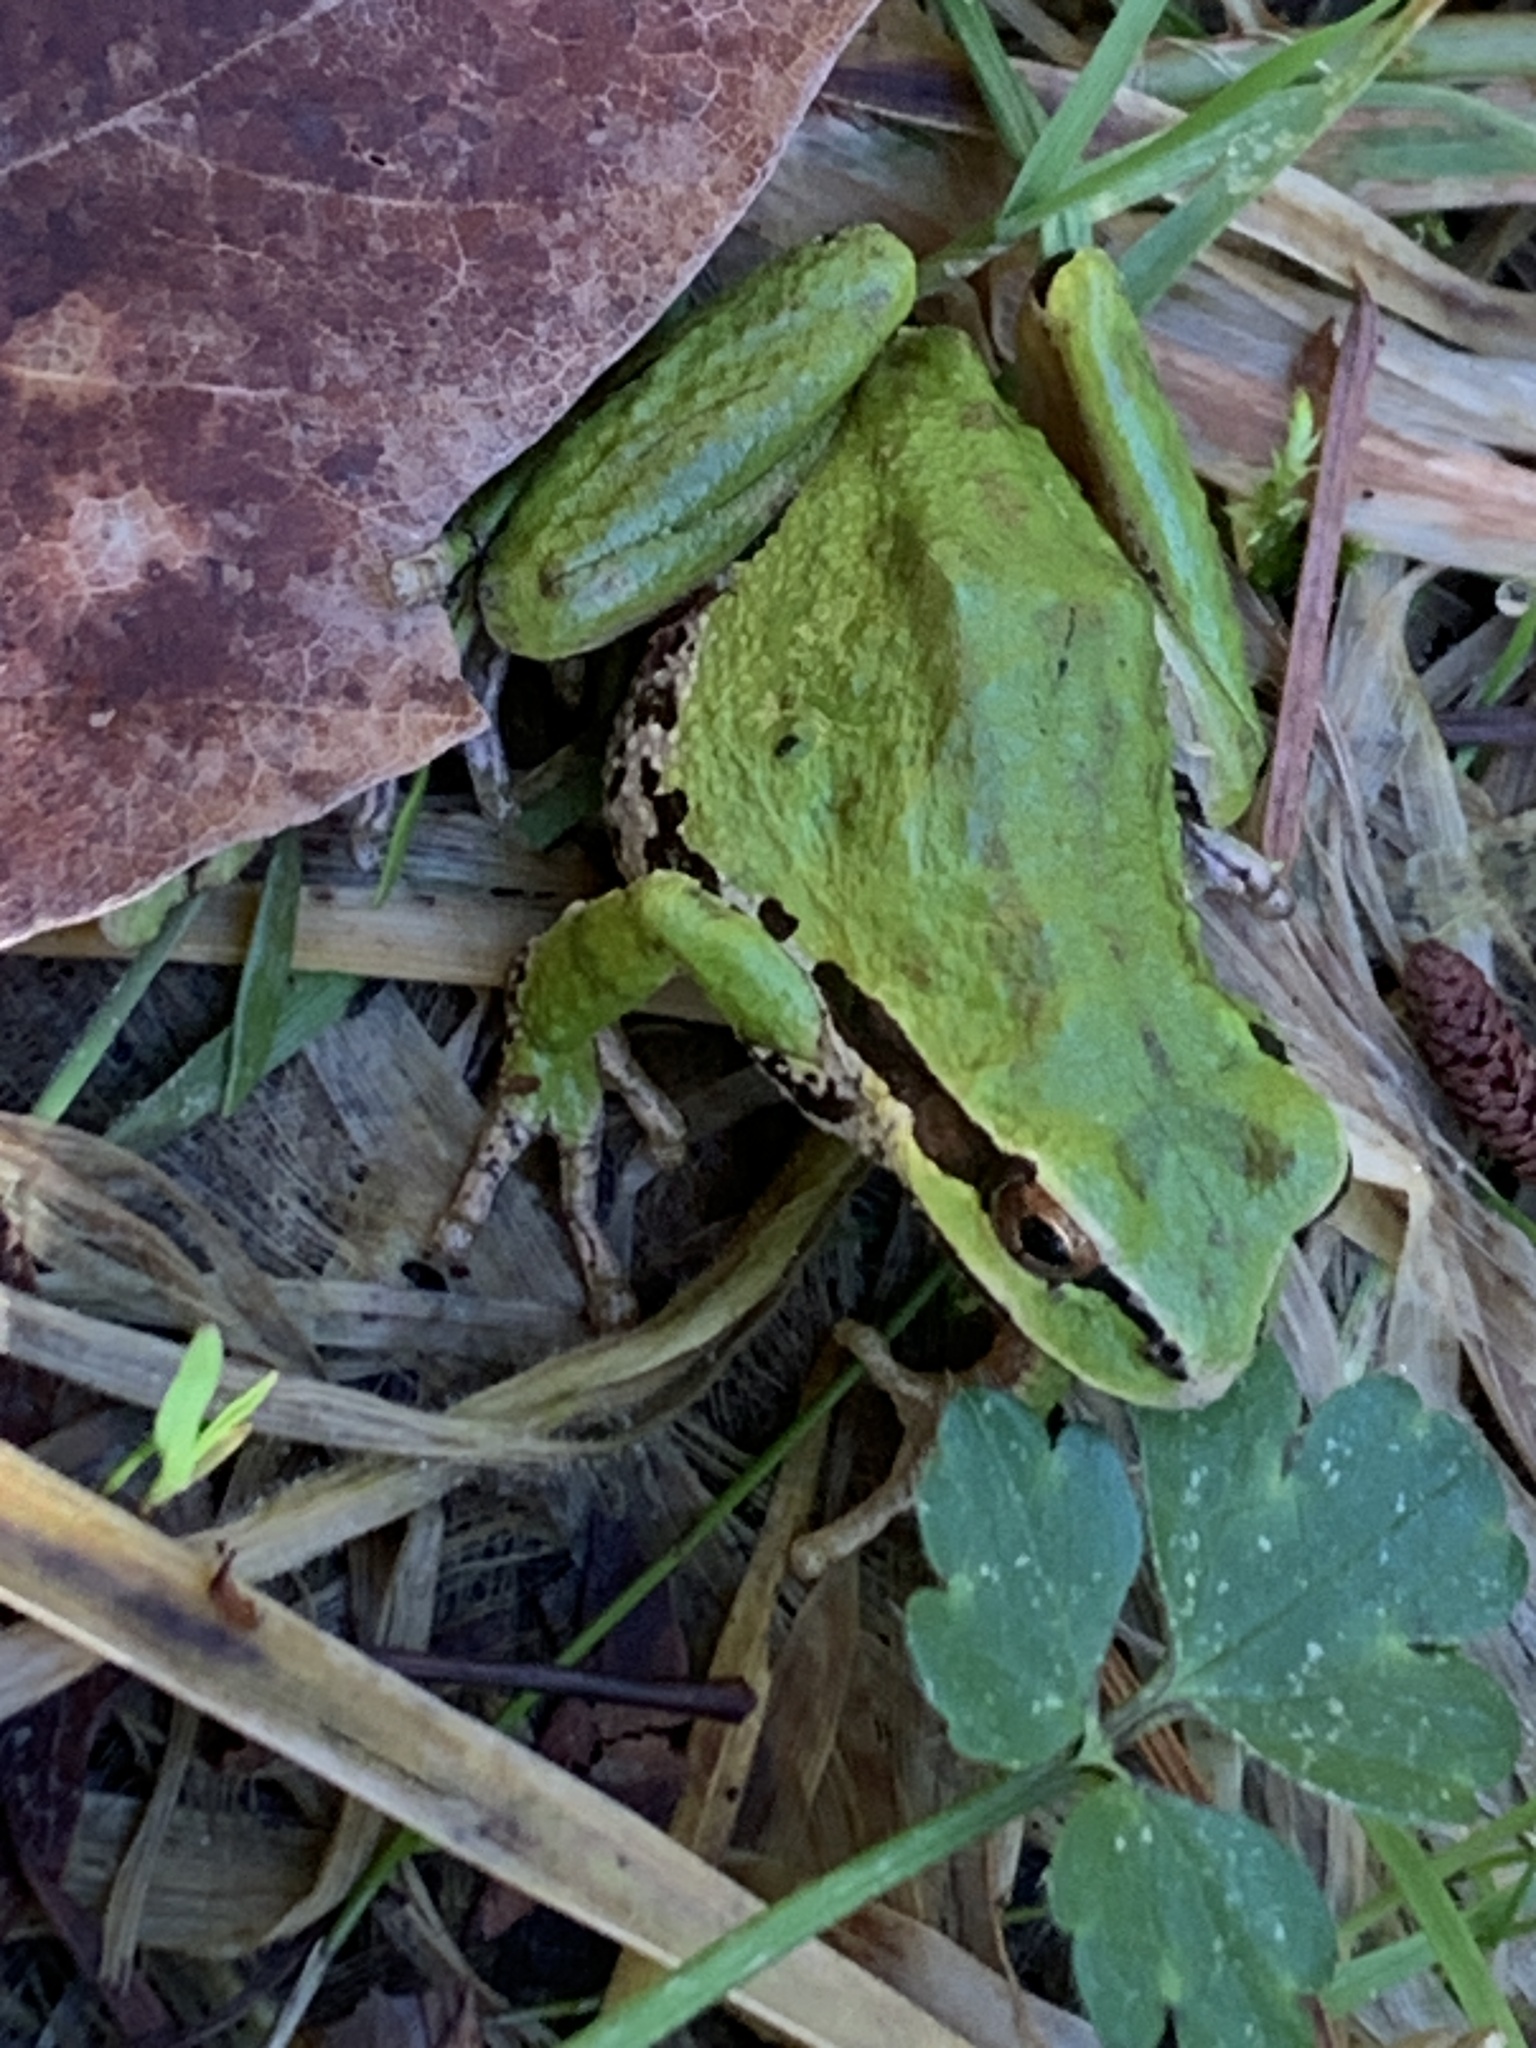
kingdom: Animalia
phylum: Chordata
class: Amphibia
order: Anura
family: Hylidae
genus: Pseudacris
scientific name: Pseudacris regilla
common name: Pacific chorus frog
